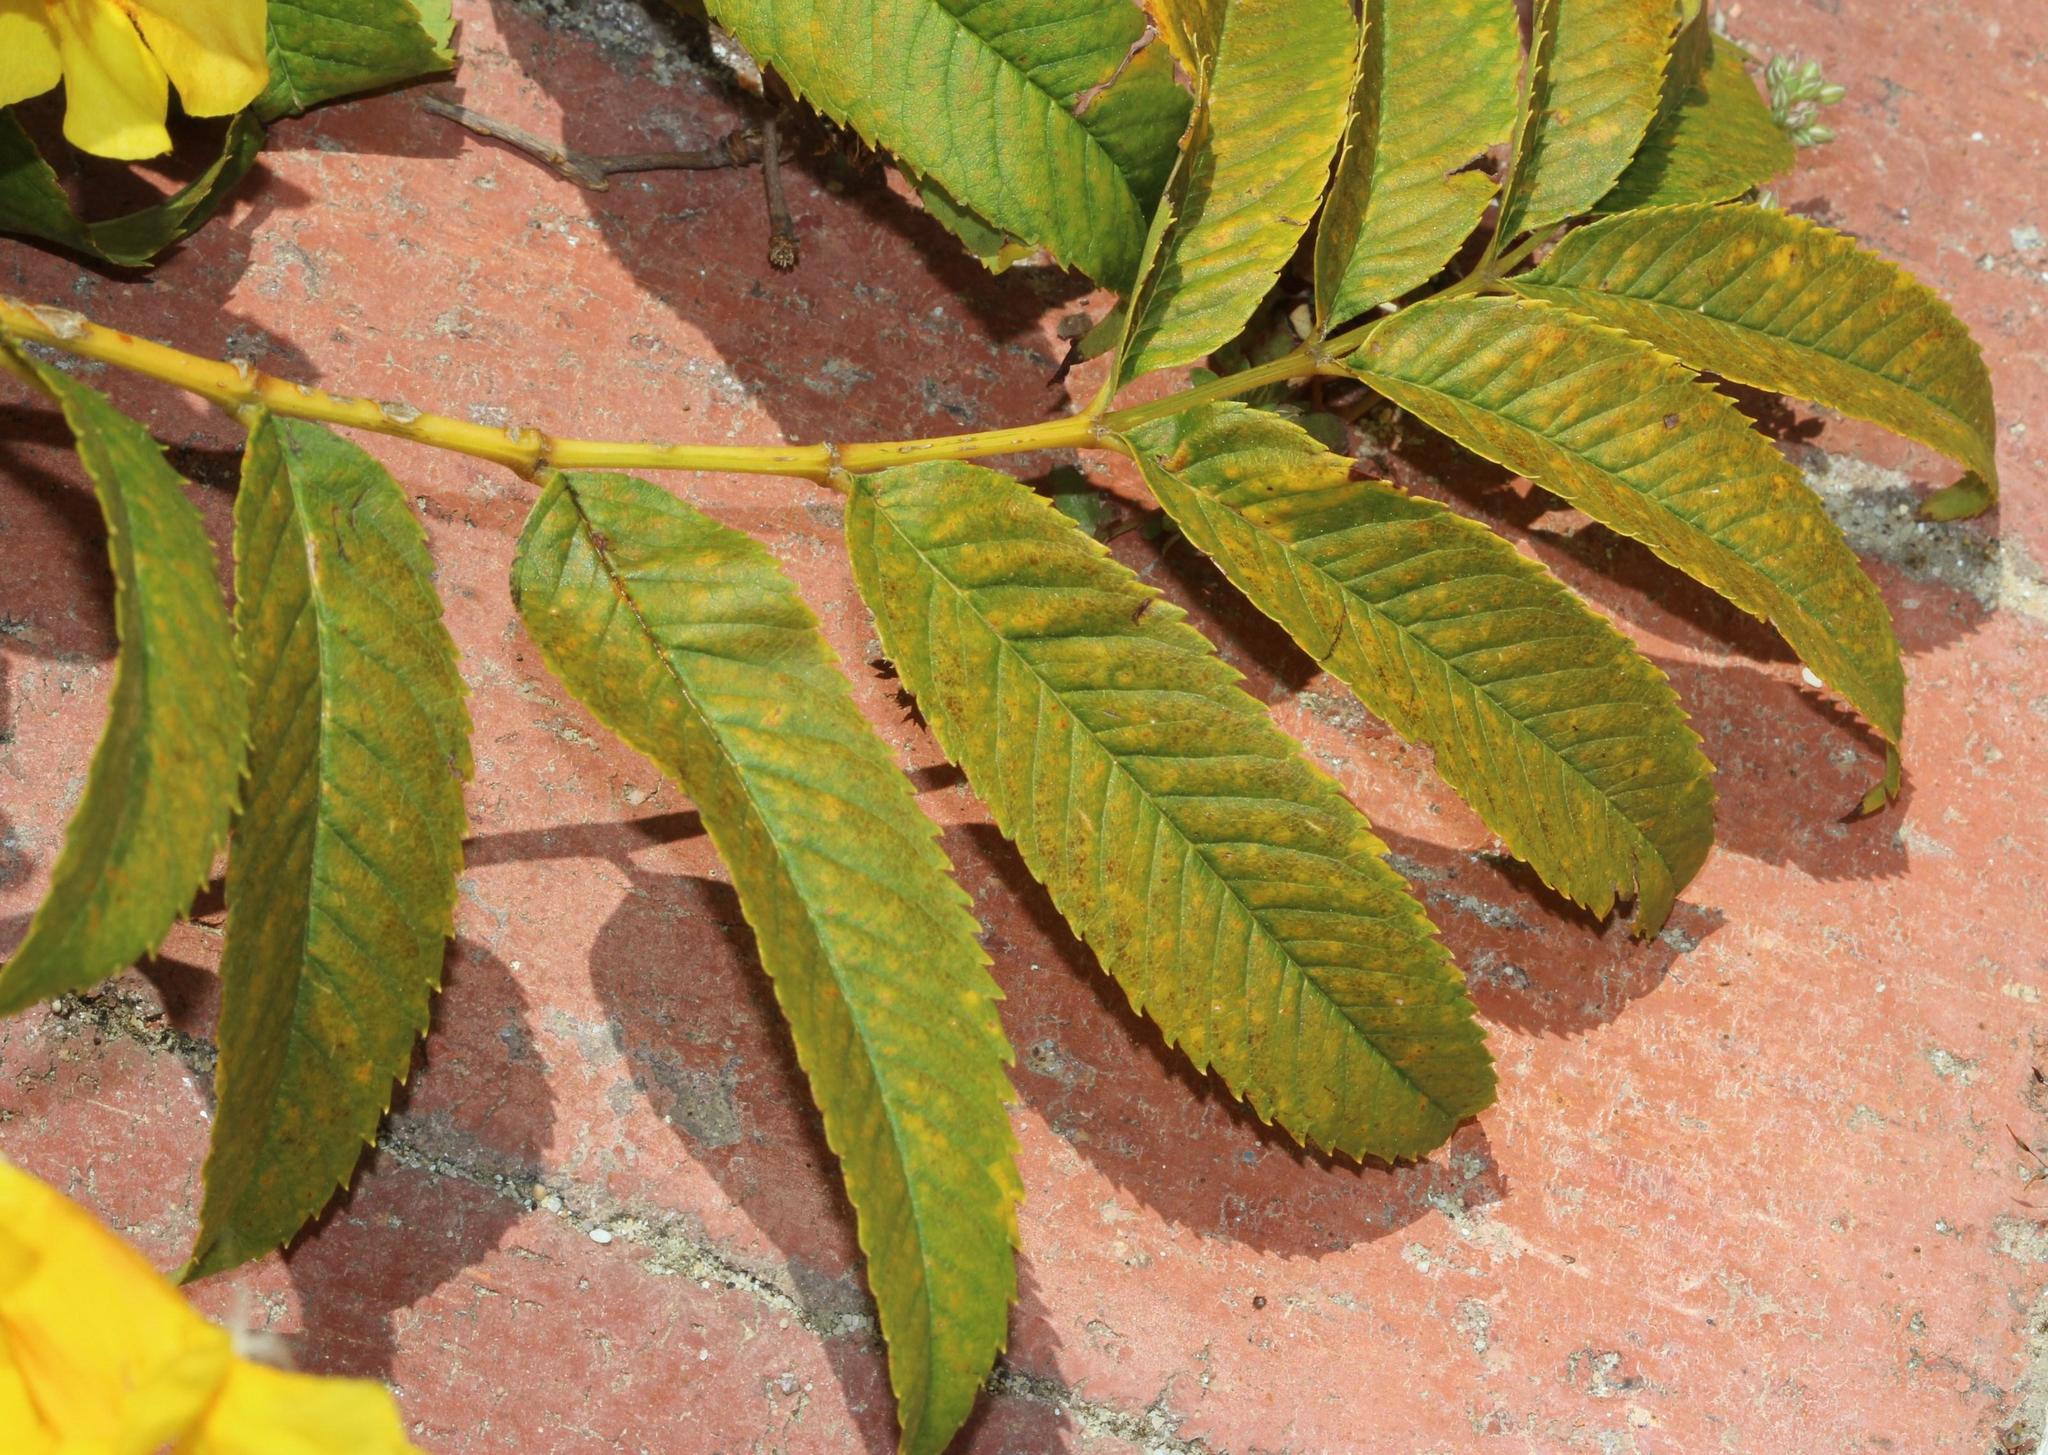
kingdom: Plantae
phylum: Tracheophyta
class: Magnoliopsida
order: Lamiales
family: Bignoniaceae
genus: Tecoma
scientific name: Tecoma stans
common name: Yellow trumpetbush
